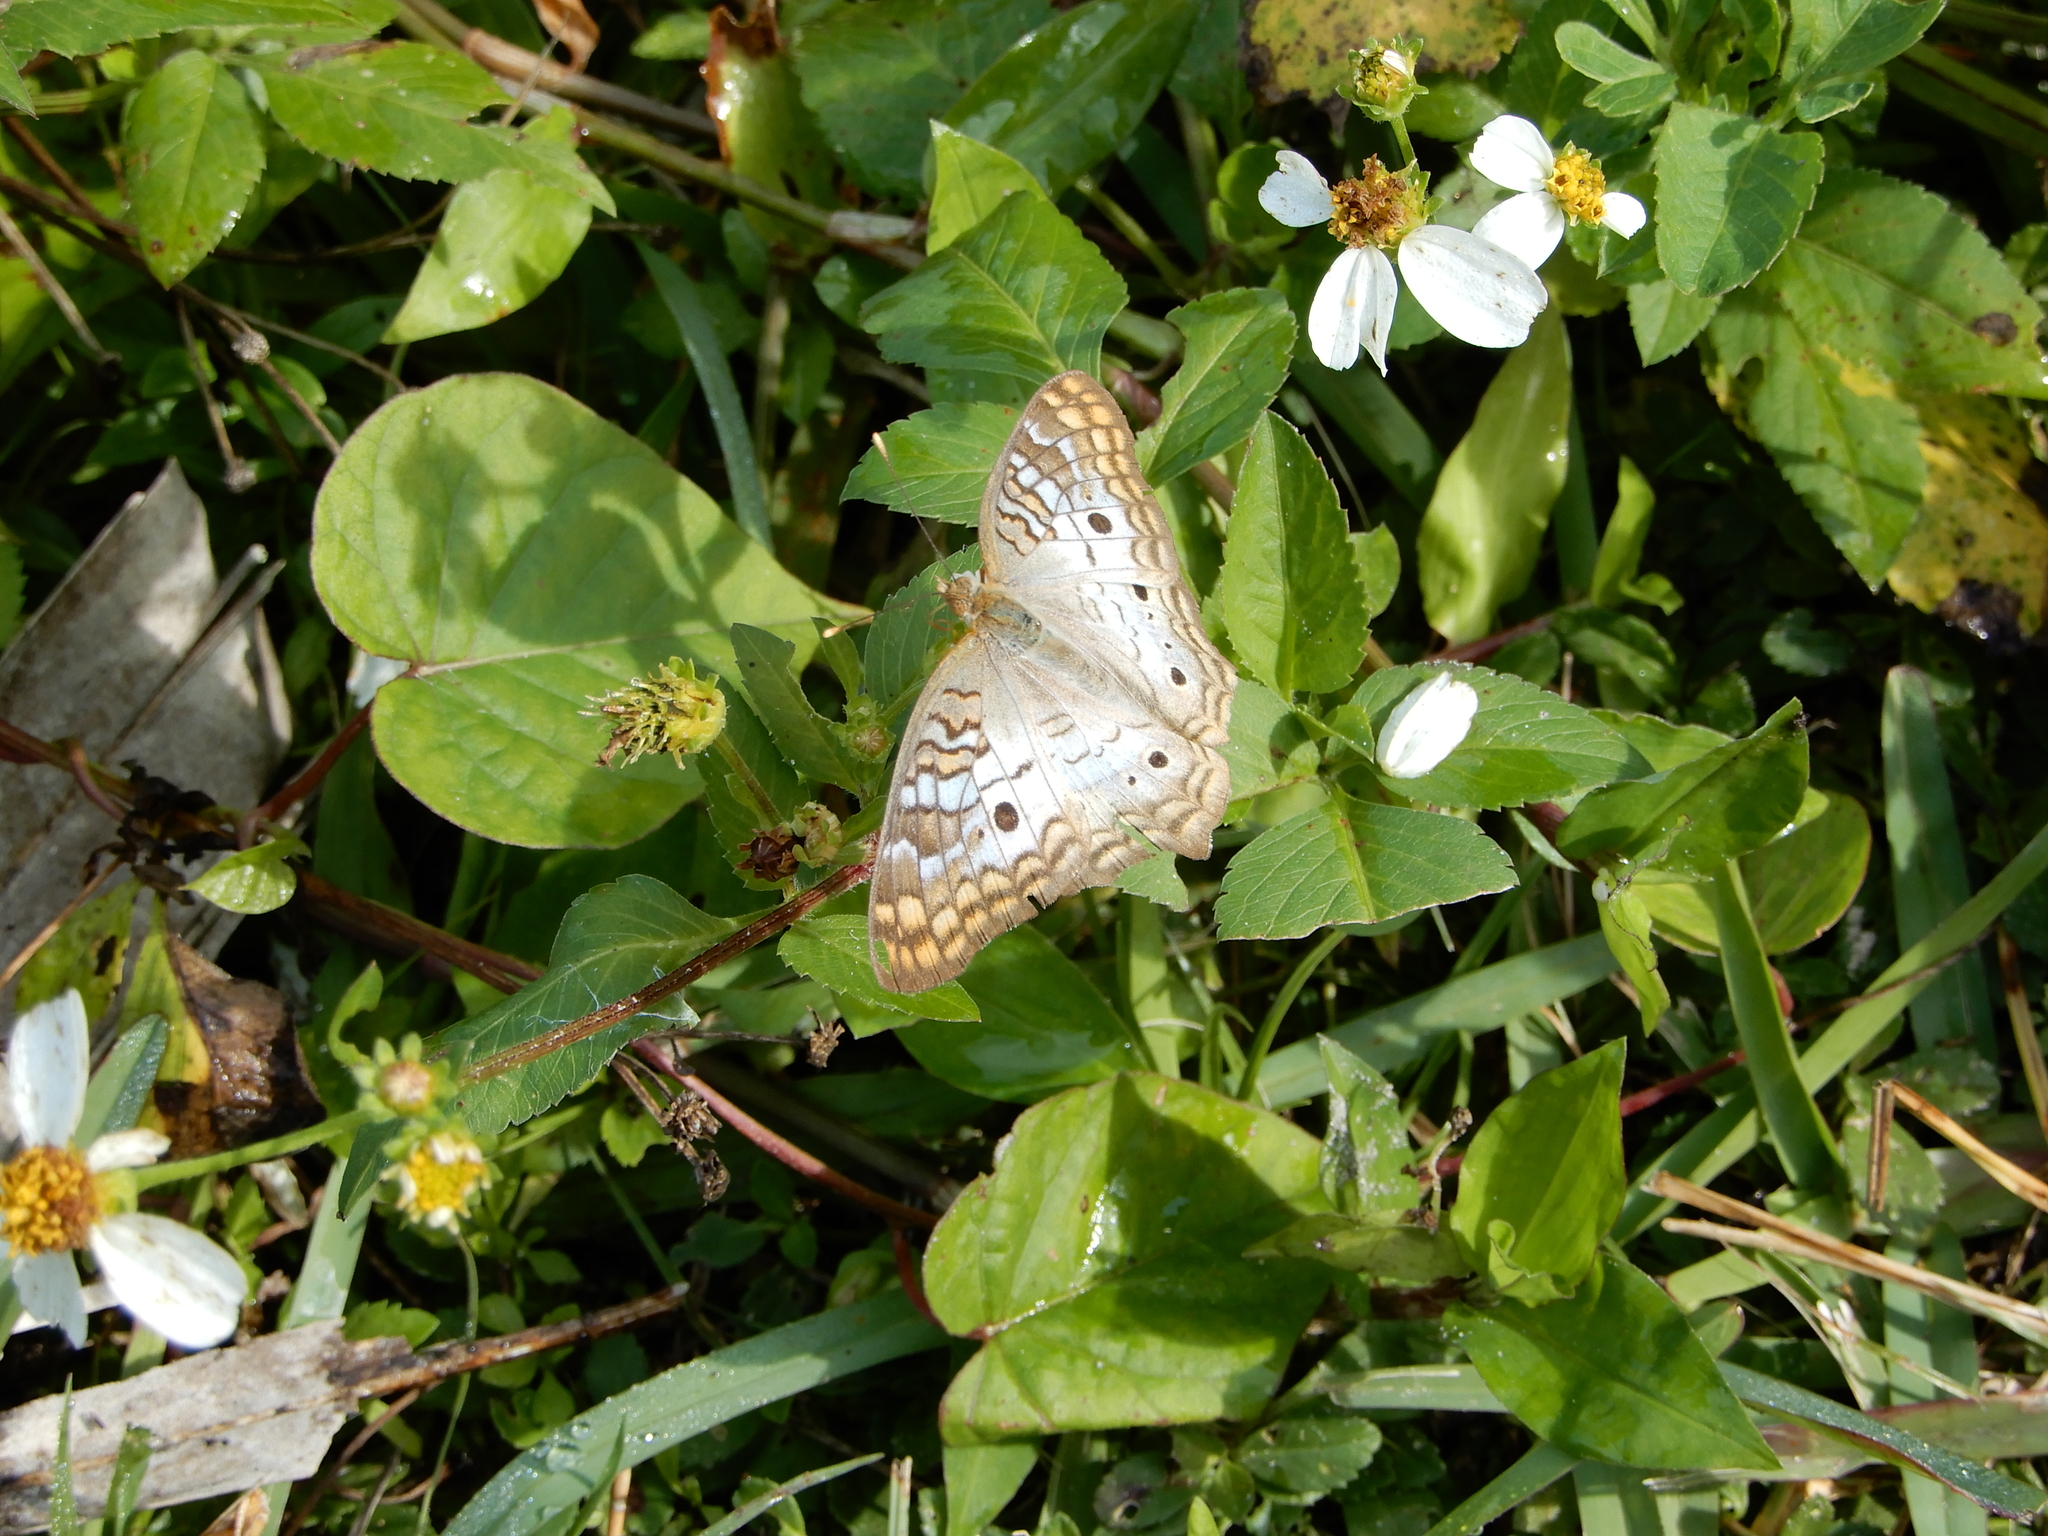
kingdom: Animalia
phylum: Arthropoda
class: Insecta
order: Lepidoptera
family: Nymphalidae
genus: Anartia
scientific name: Anartia jatrophae
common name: White peacock
